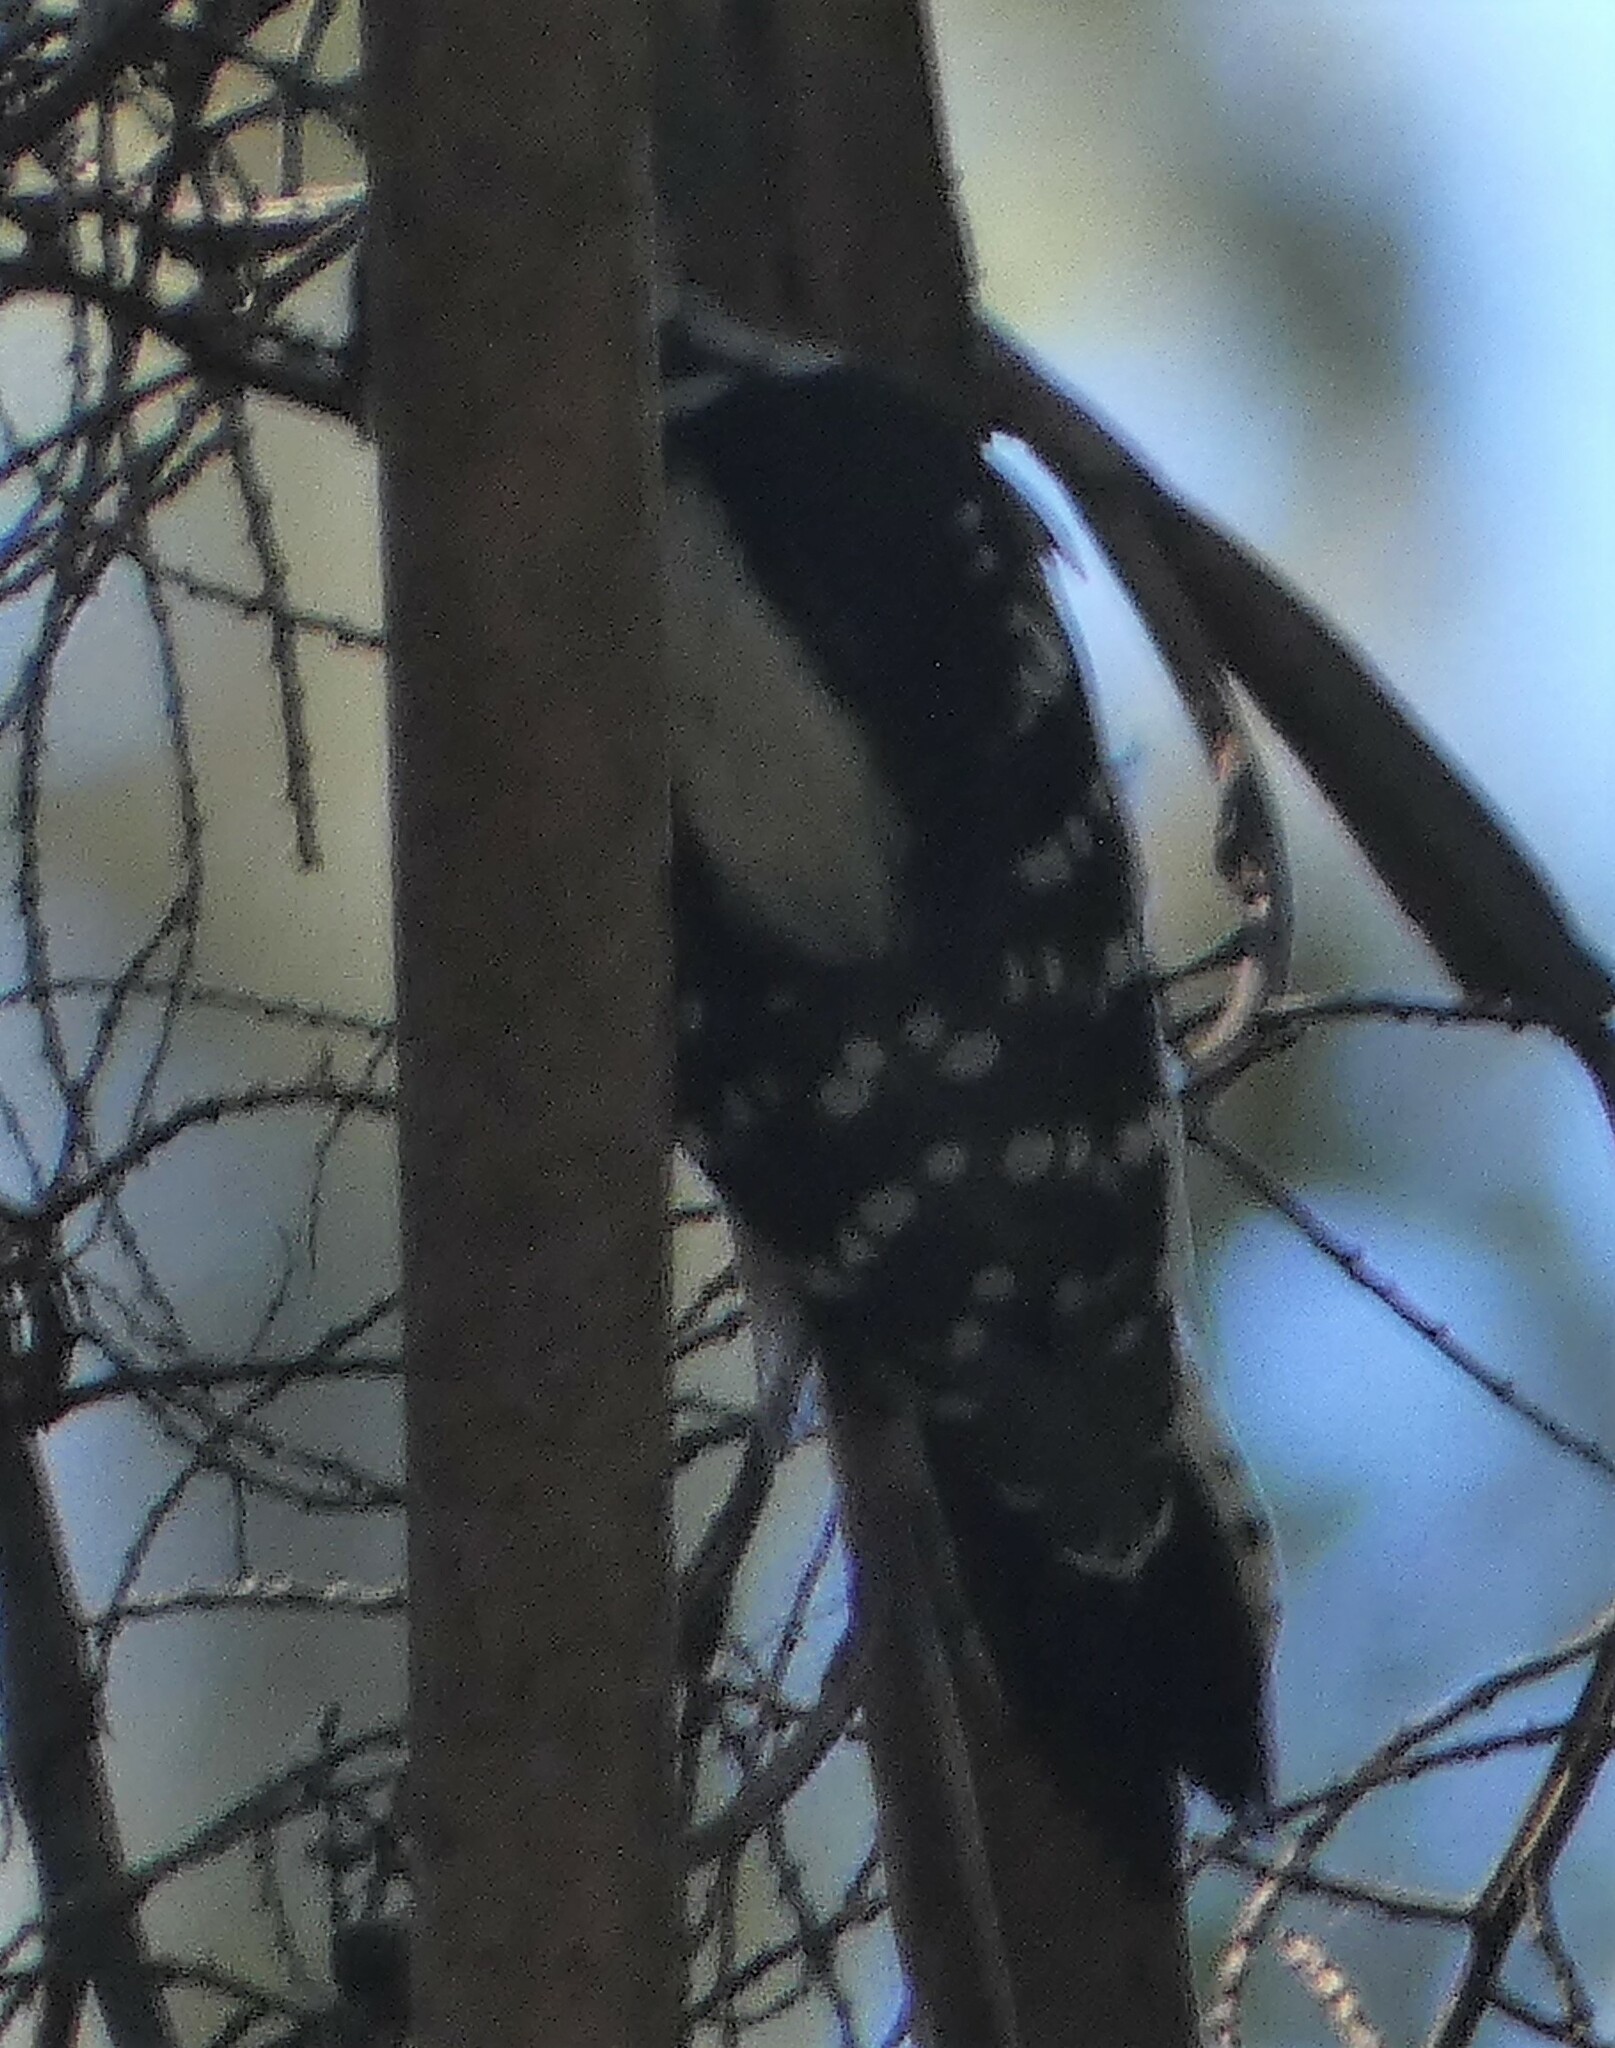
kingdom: Animalia
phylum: Chordata
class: Aves
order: Piciformes
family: Picidae
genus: Dryobates
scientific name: Dryobates pubescens
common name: Downy woodpecker
